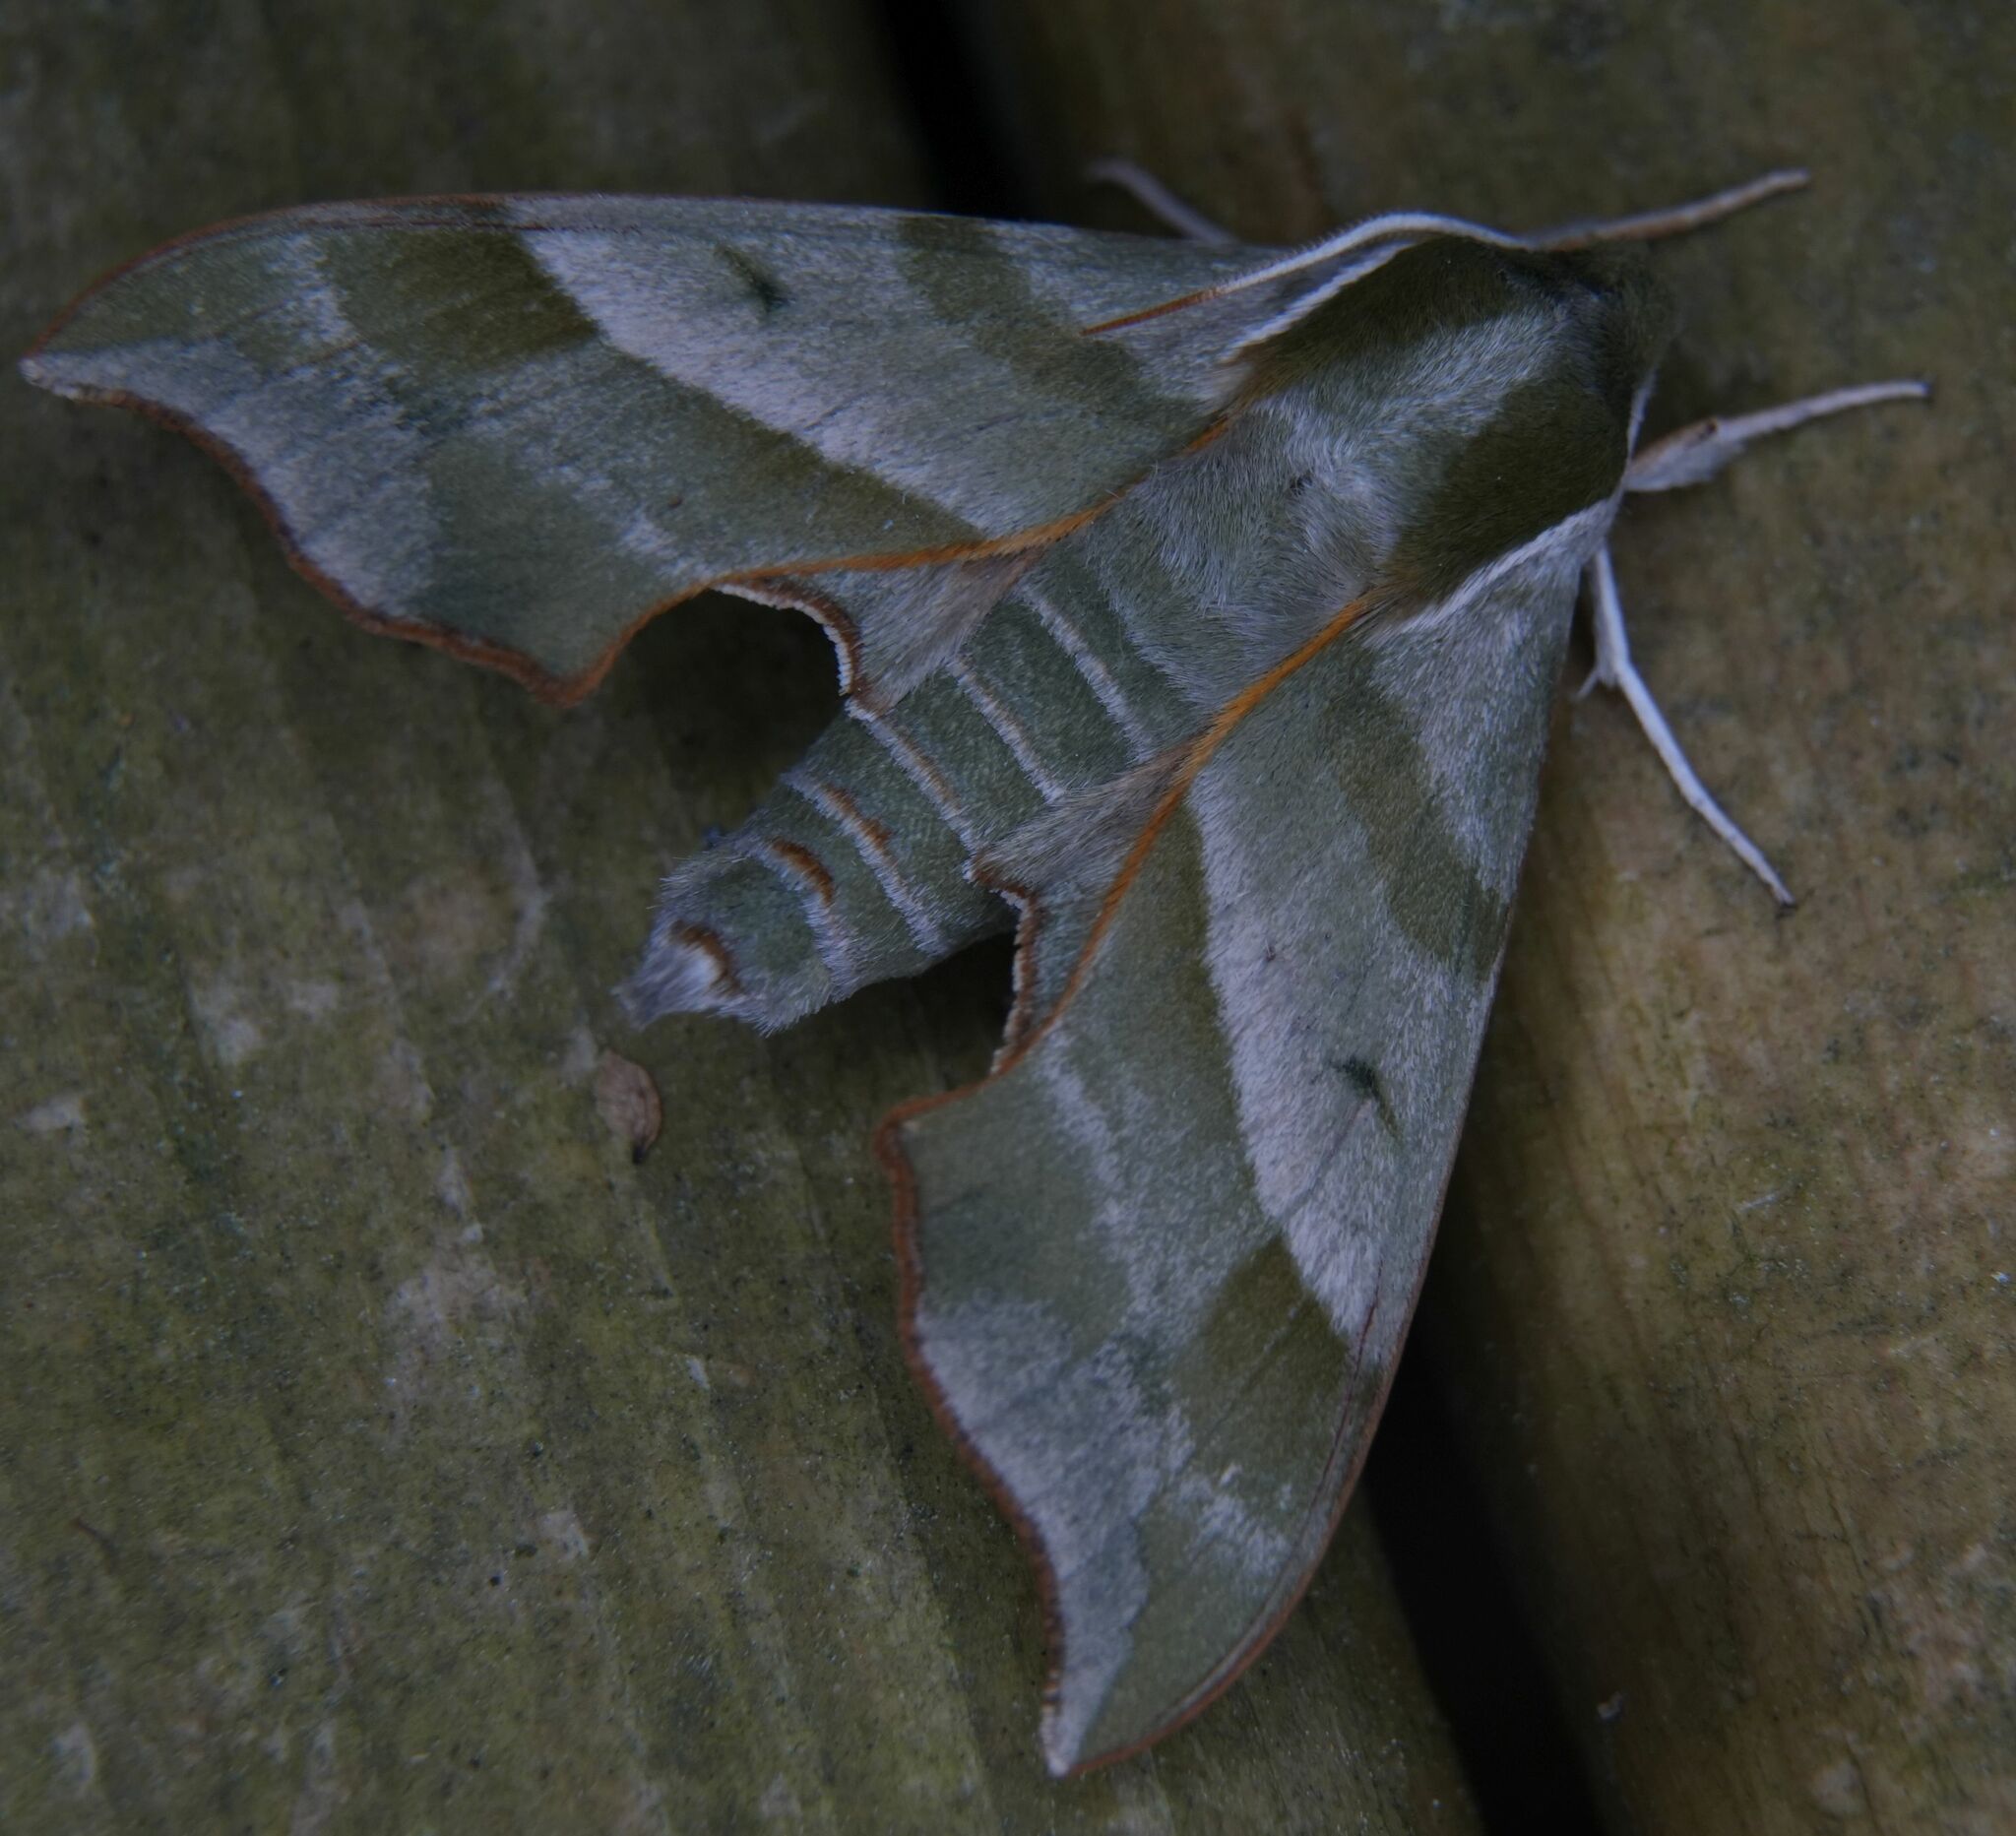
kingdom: Animalia
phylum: Arthropoda
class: Insecta
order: Lepidoptera
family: Sphingidae
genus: Darapsa
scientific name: Darapsa myron
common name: Hog sphinx
